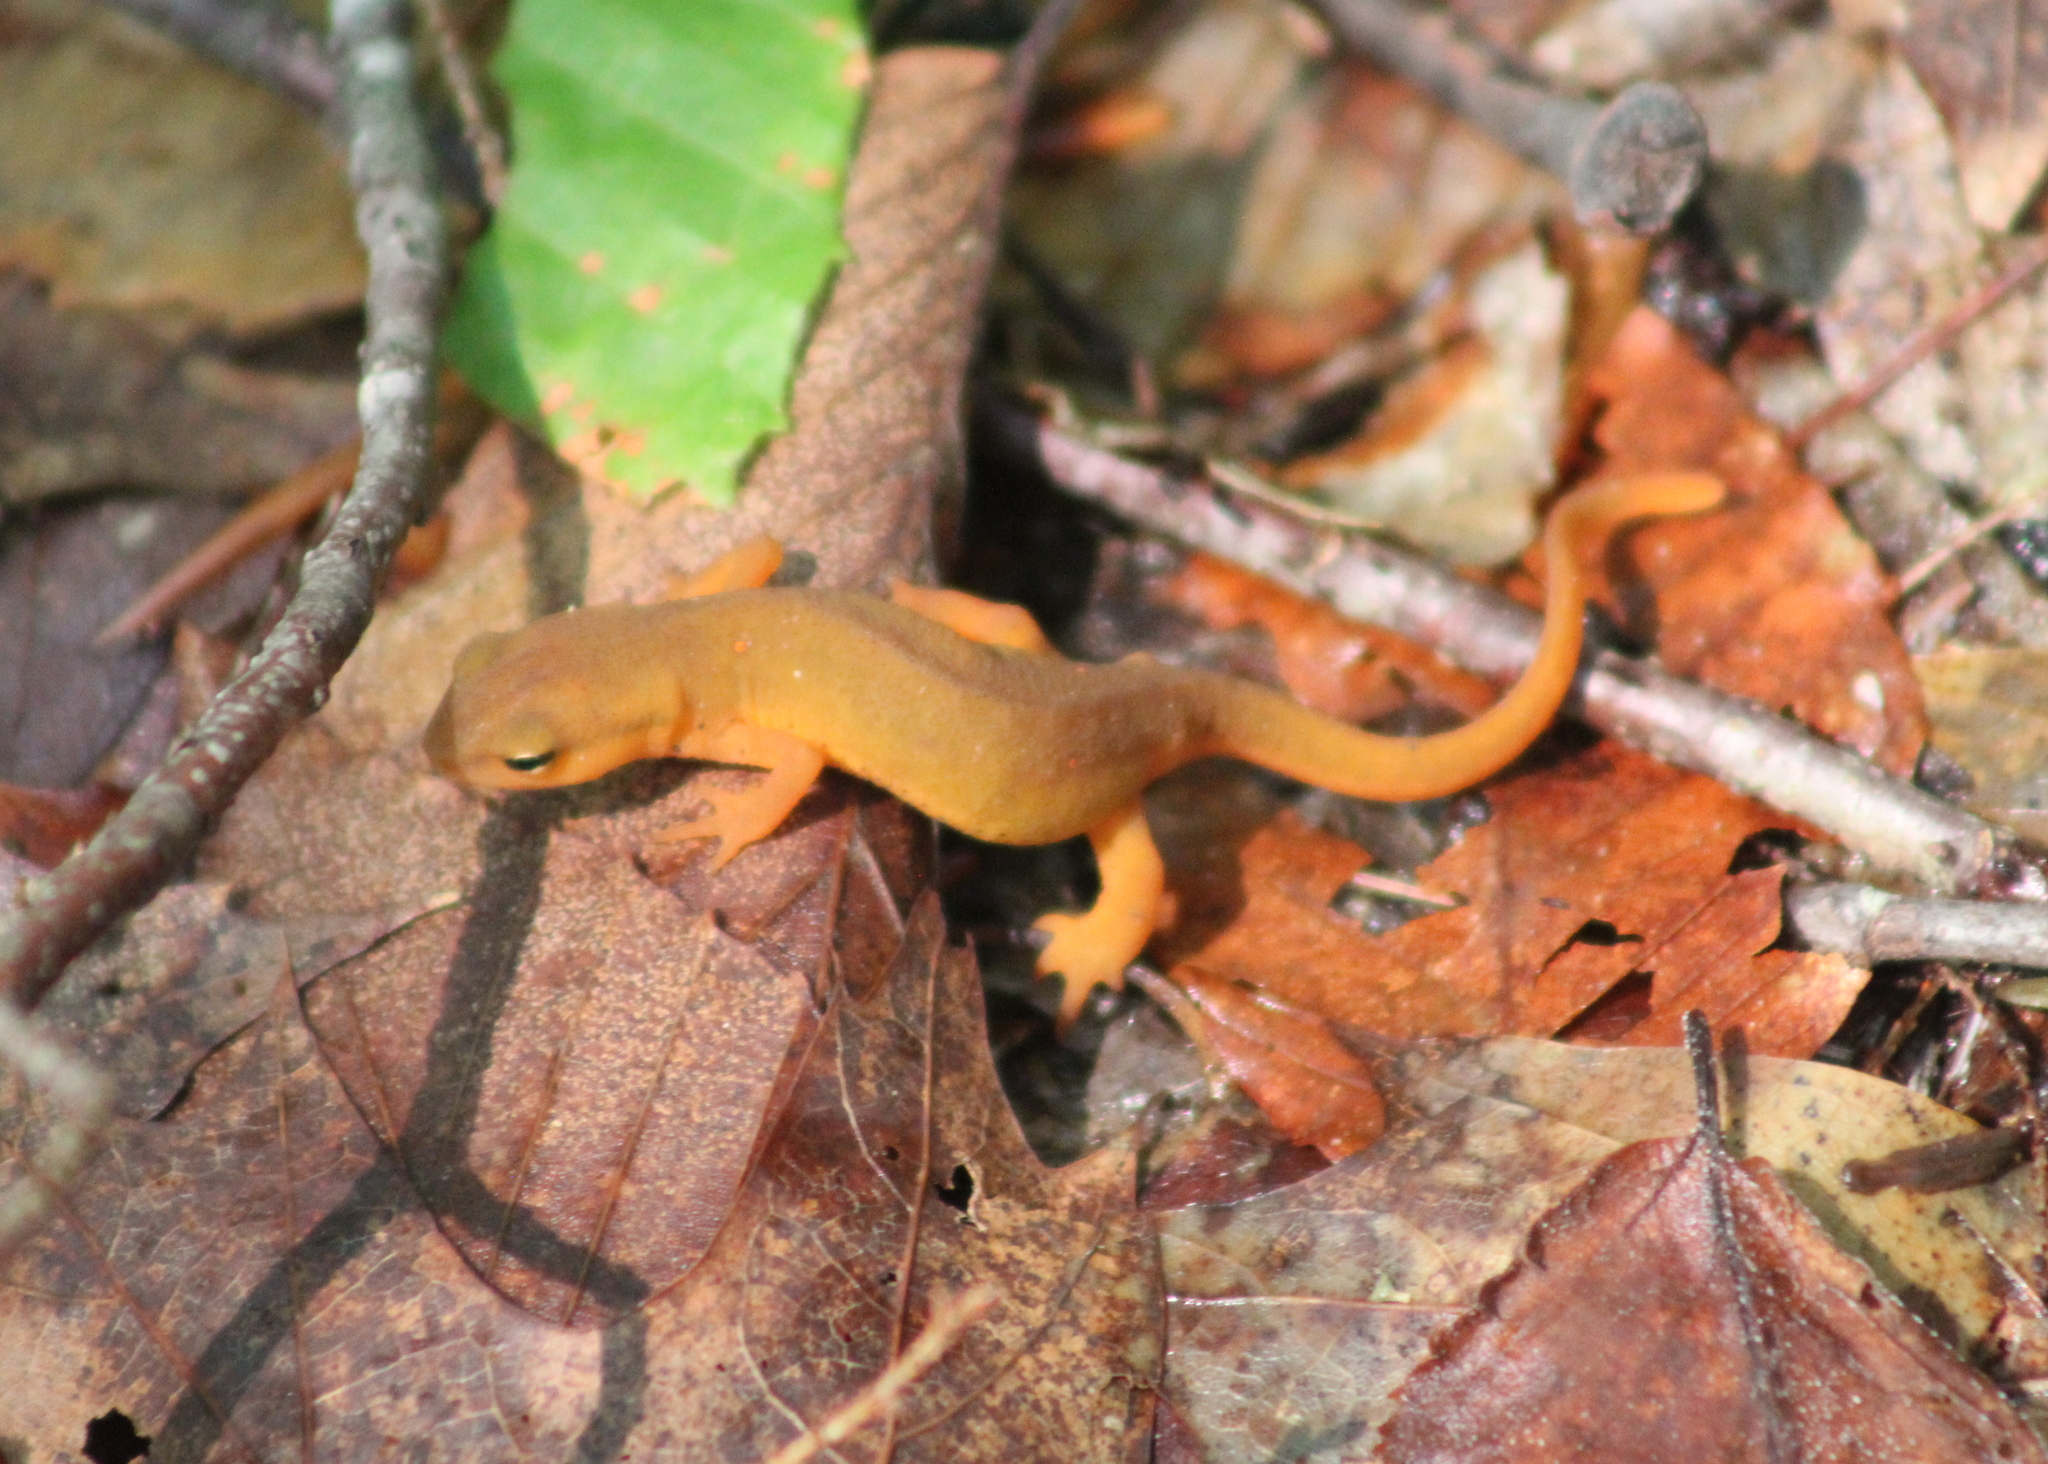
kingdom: Animalia
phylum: Chordata
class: Amphibia
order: Caudata
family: Salamandridae
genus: Notophthalmus
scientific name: Notophthalmus viridescens
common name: Eastern newt
